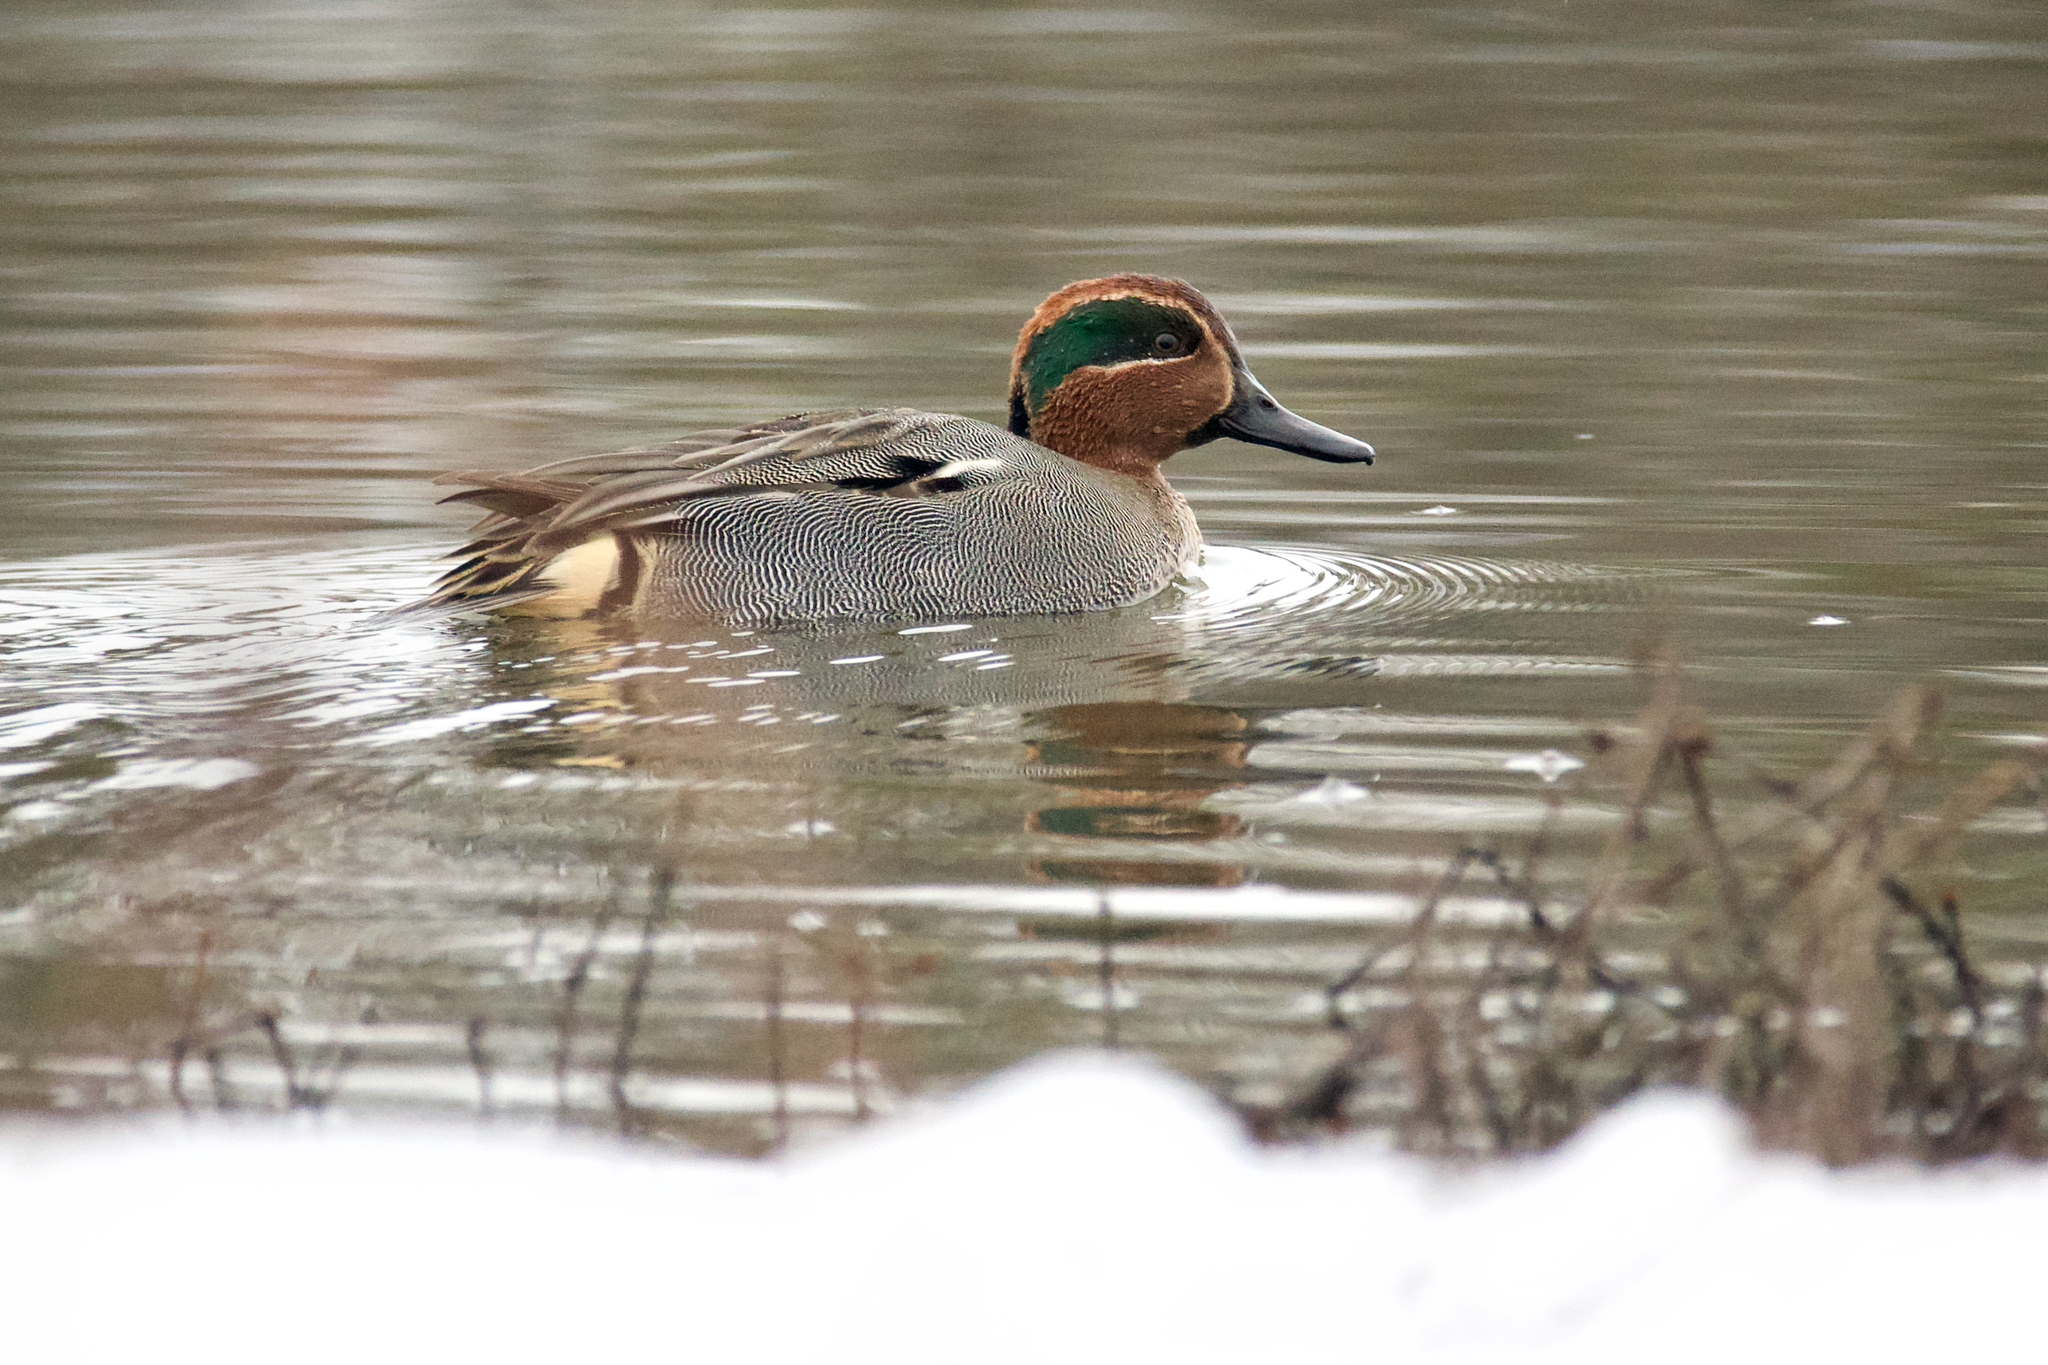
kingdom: Animalia
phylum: Chordata
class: Aves
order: Anseriformes
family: Anatidae
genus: Anas
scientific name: Anas crecca
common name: Eurasian teal
